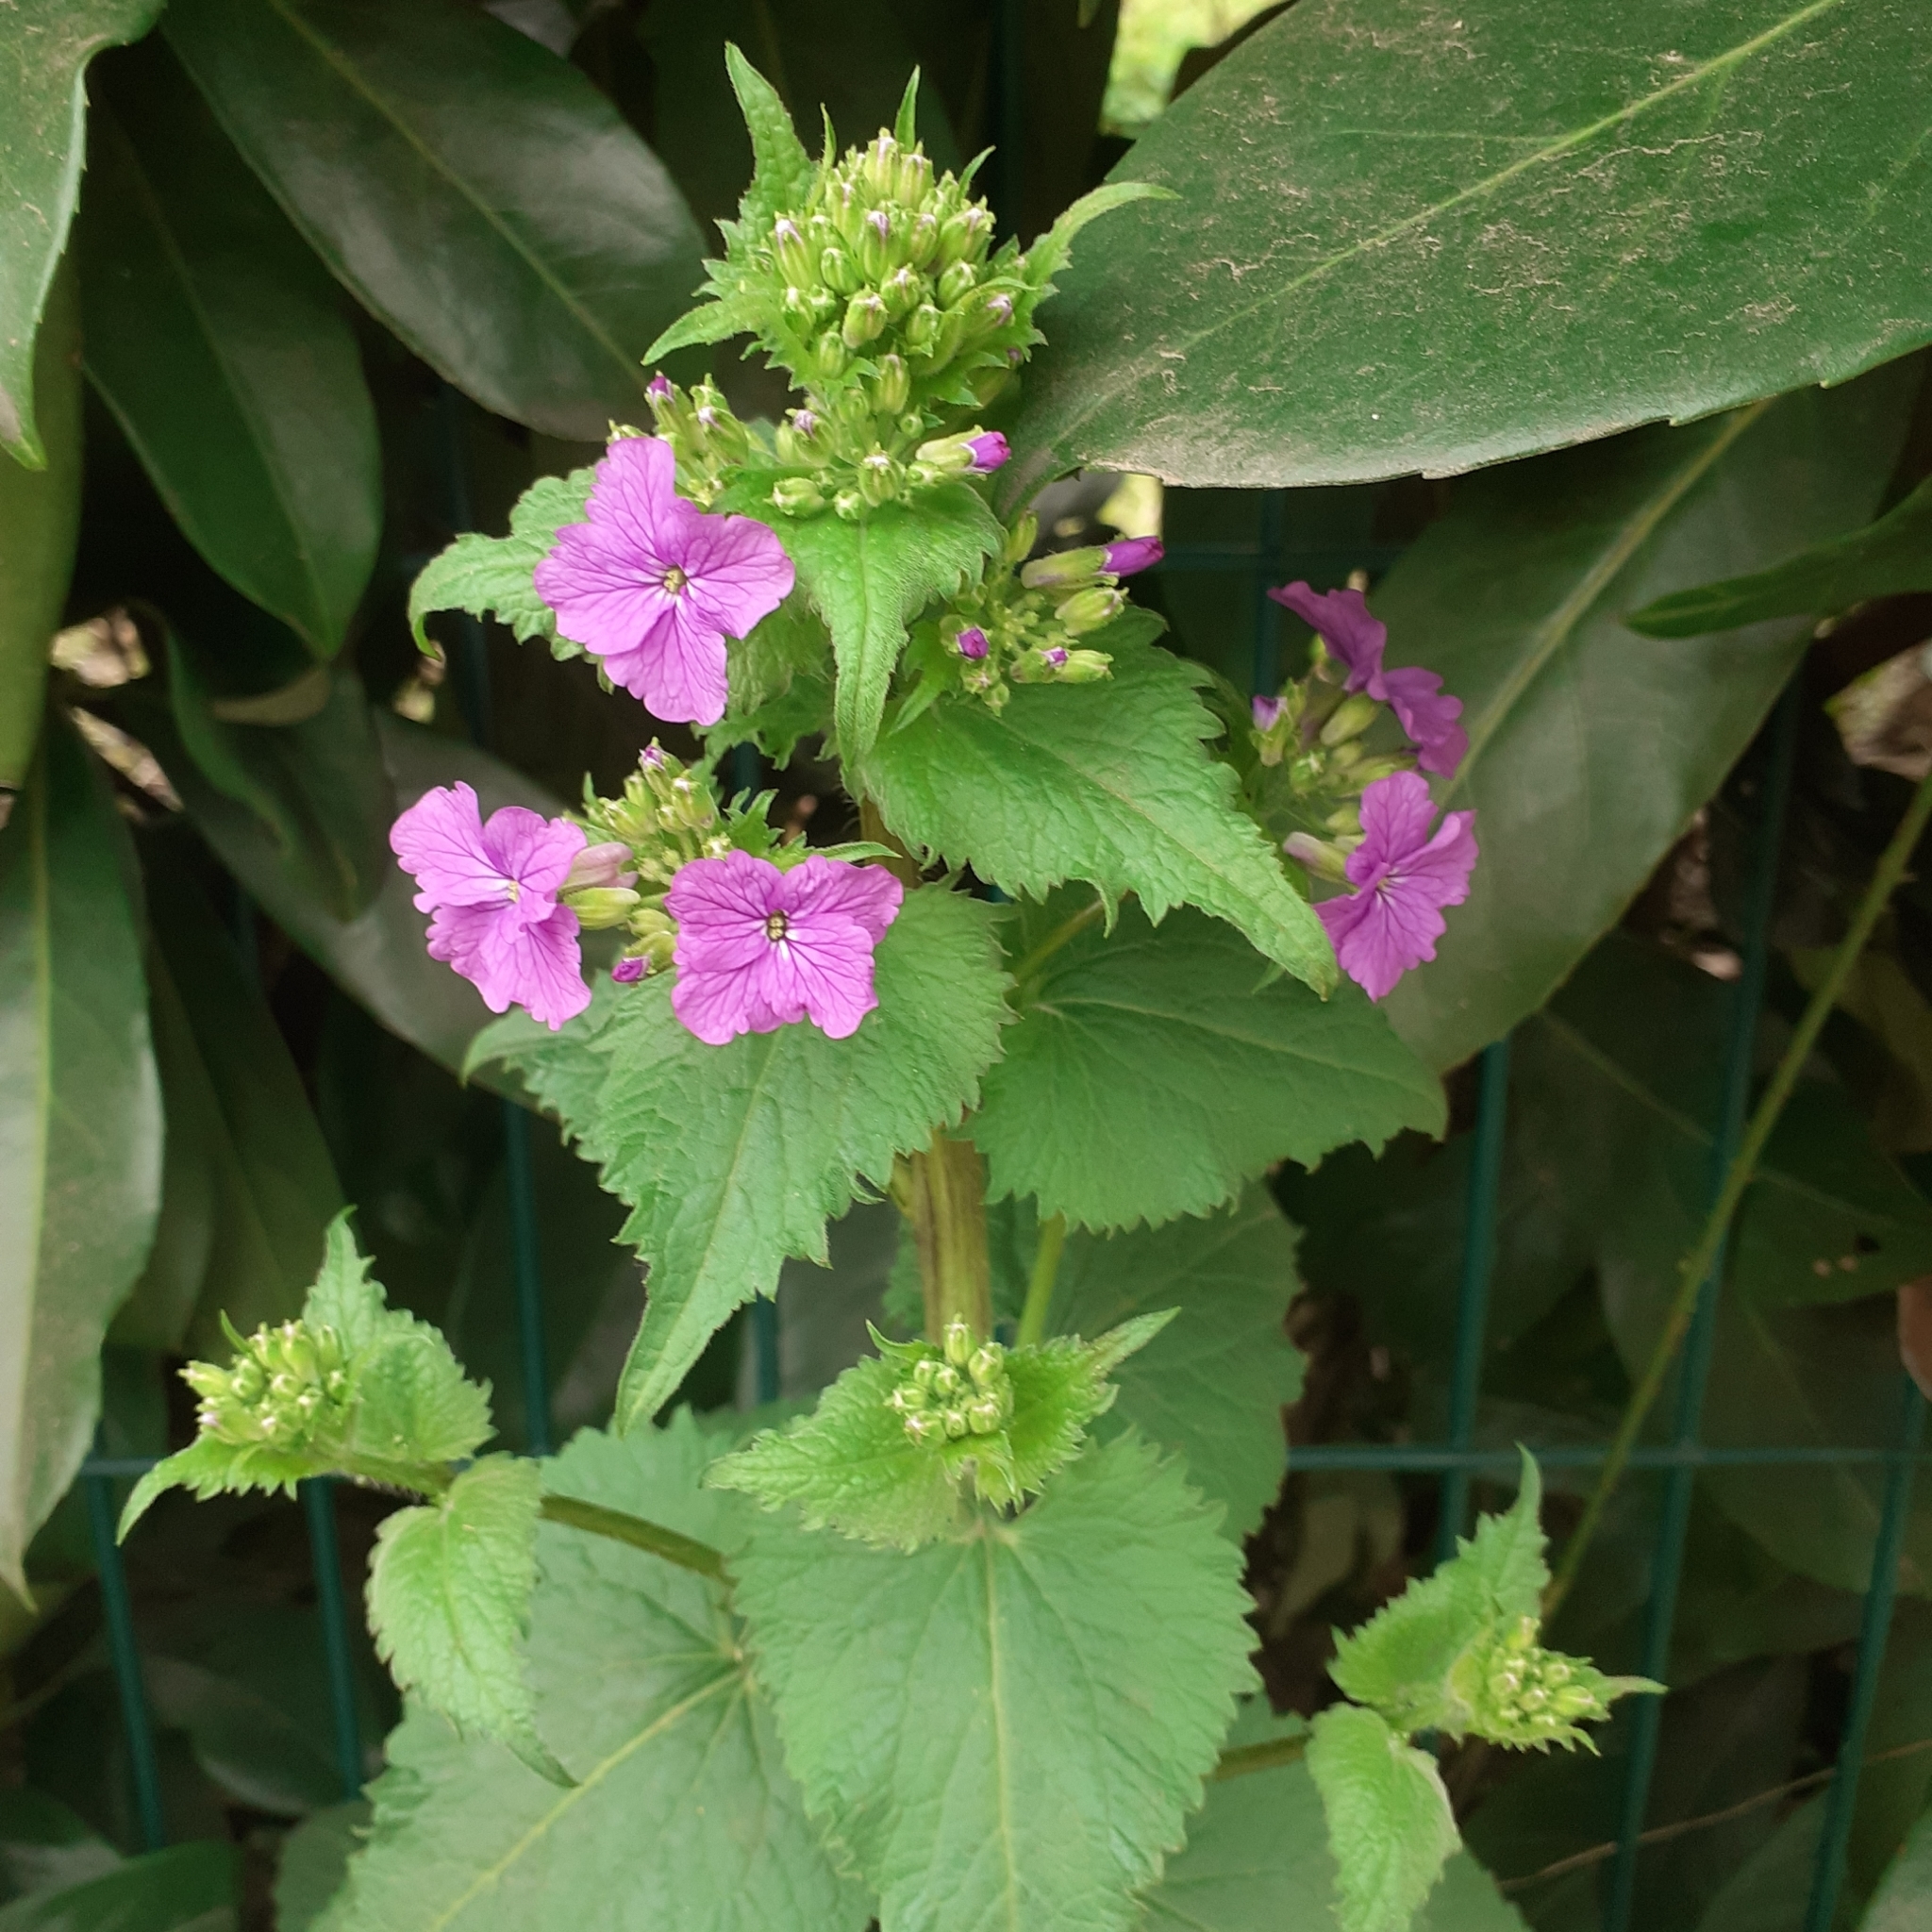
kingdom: Plantae
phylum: Tracheophyta
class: Magnoliopsida
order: Brassicales
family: Brassicaceae
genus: Lunaria
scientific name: Lunaria annua
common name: Honesty
